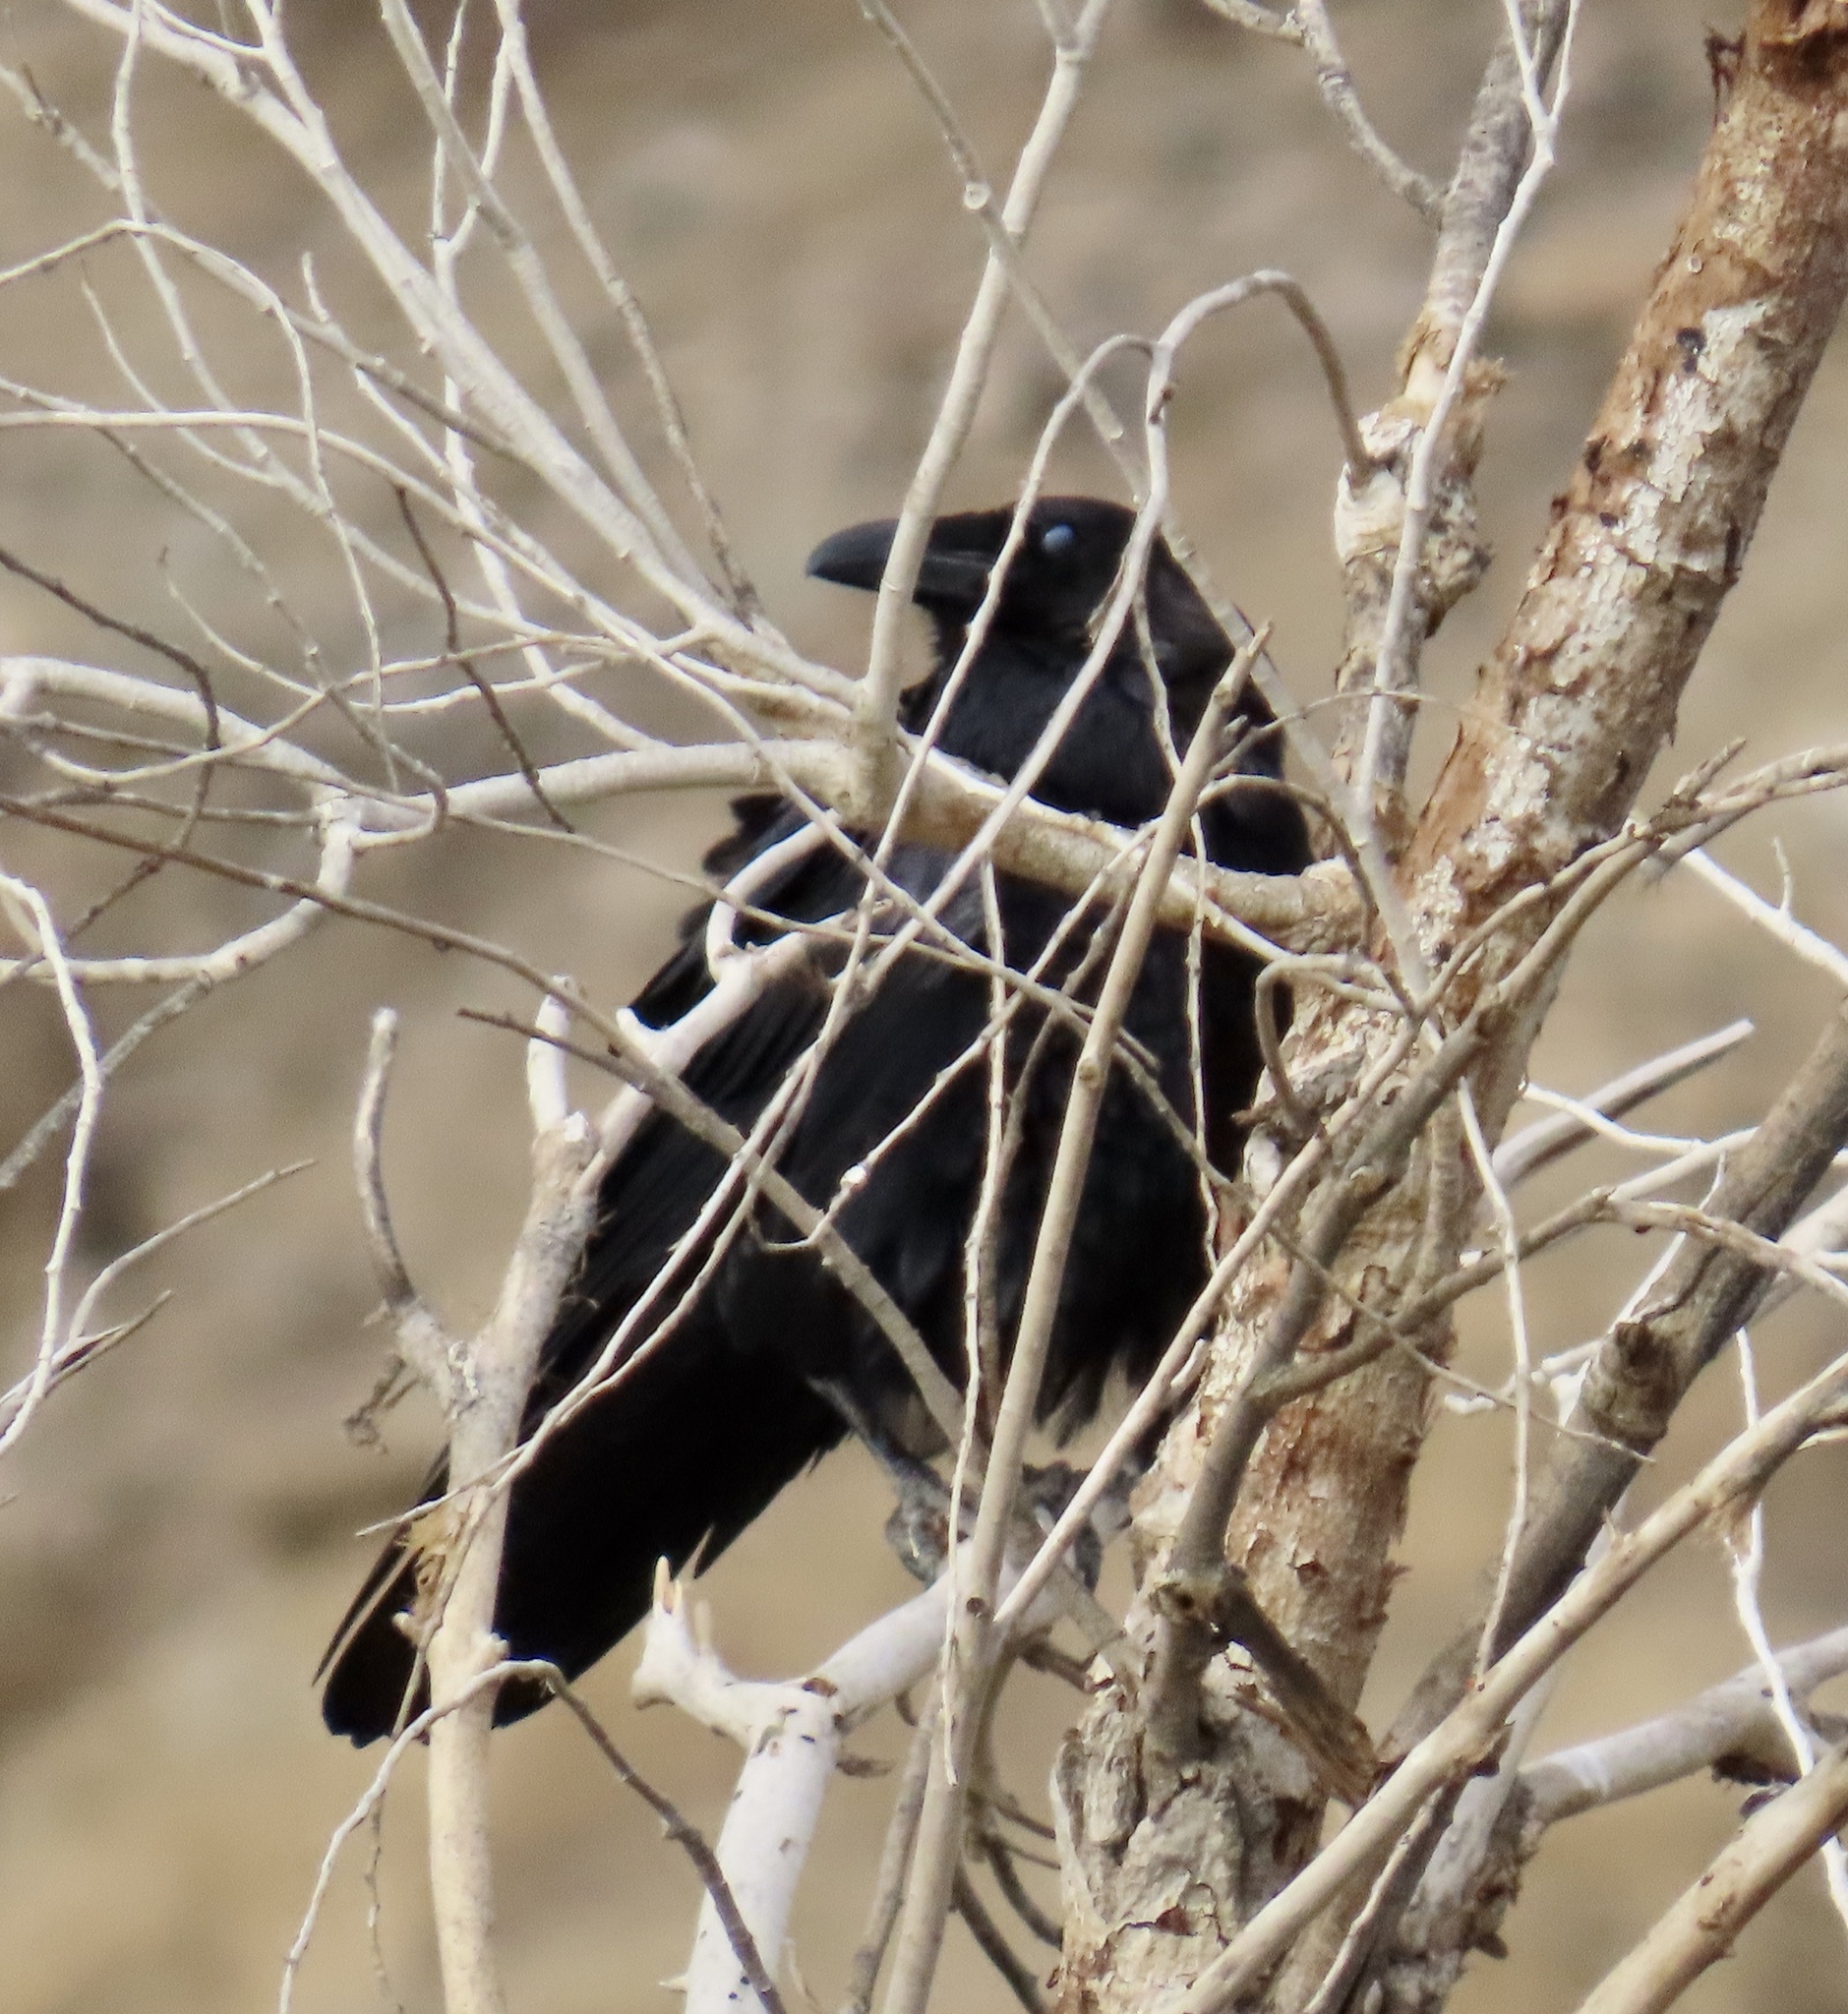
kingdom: Animalia
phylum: Chordata
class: Aves
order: Passeriformes
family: Corvidae
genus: Corvus
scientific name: Corvus corax
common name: Common raven
